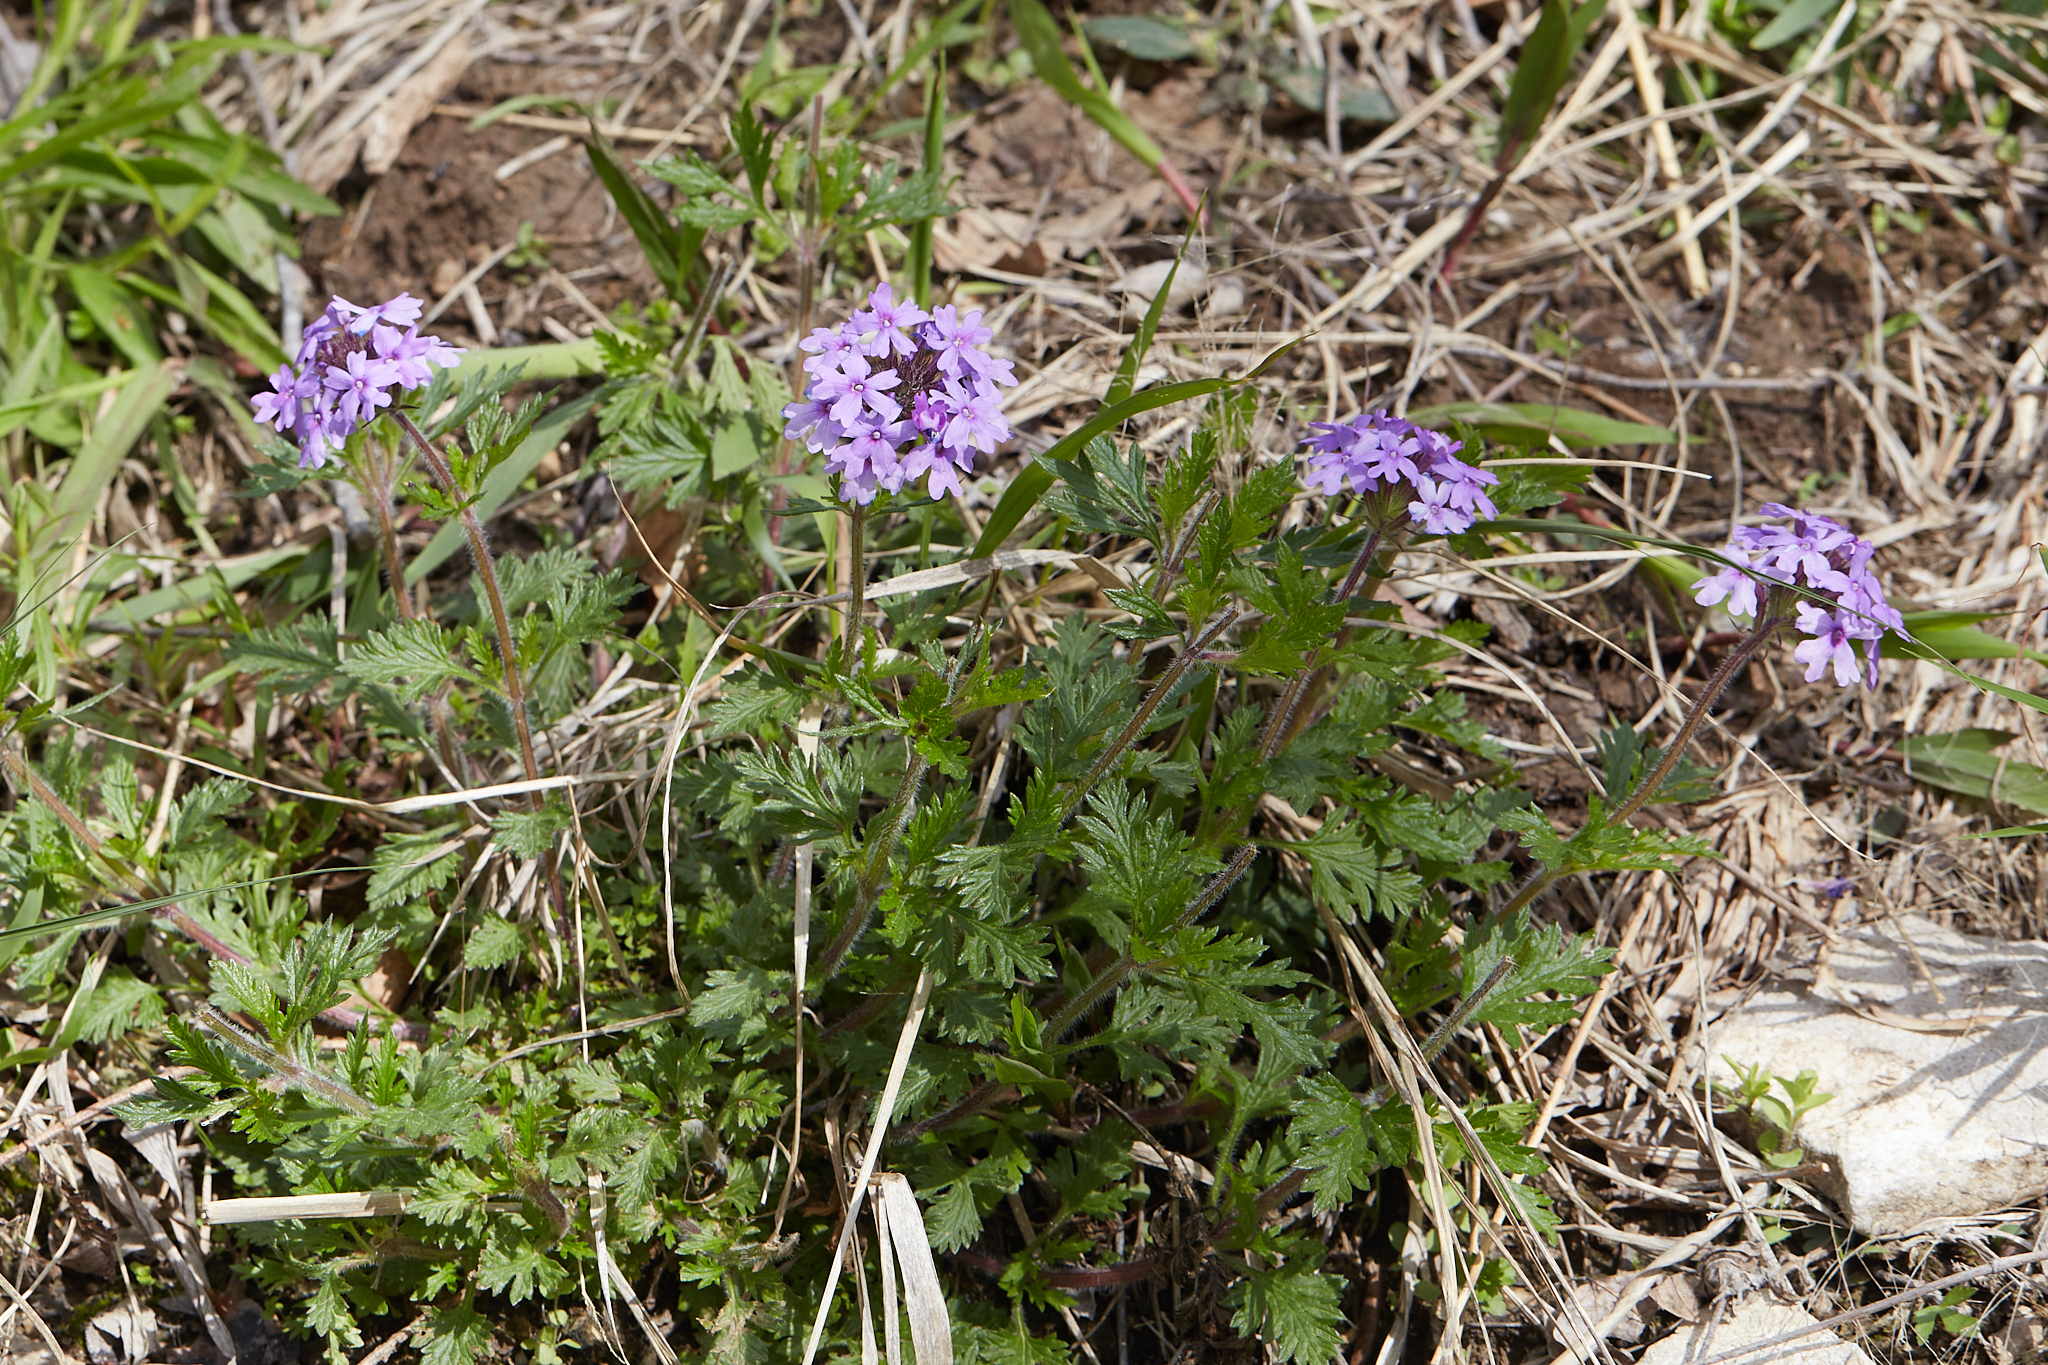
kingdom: Plantae
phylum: Tracheophyta
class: Magnoliopsida
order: Lamiales
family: Verbenaceae
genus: Verbena
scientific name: Verbena canadensis
